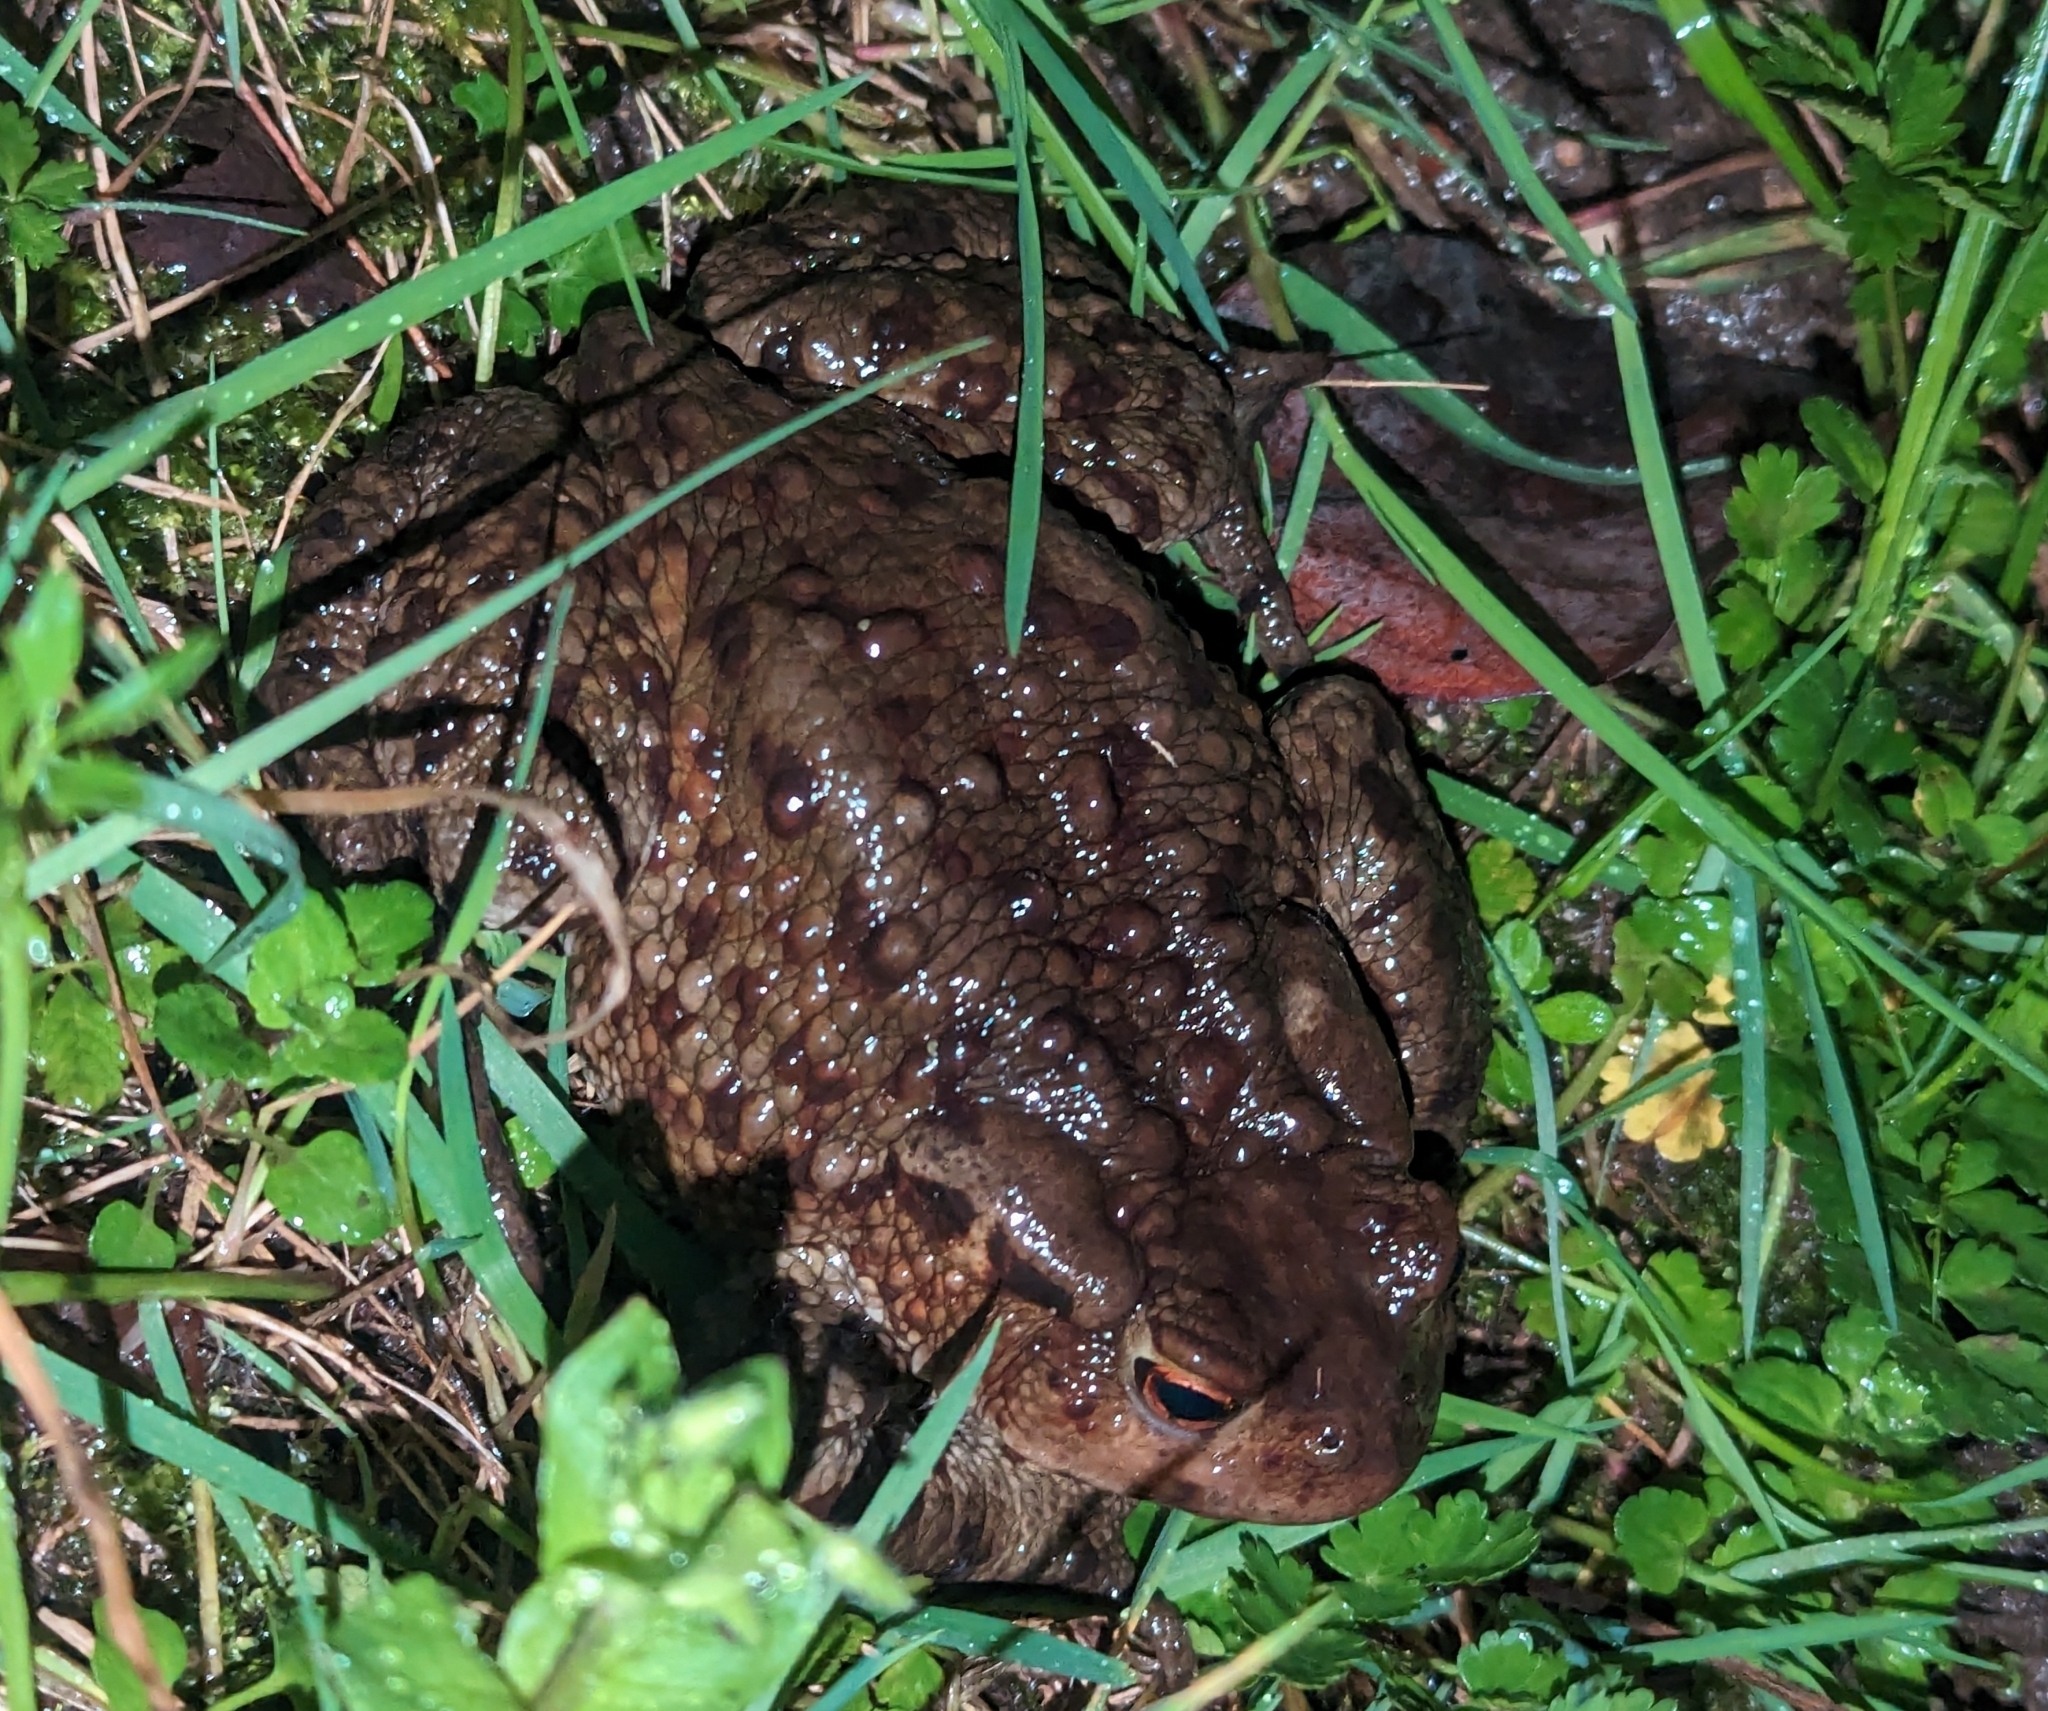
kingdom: Animalia
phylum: Chordata
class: Amphibia
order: Anura
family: Bufonidae
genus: Bufo
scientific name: Bufo bufo
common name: Common toad
